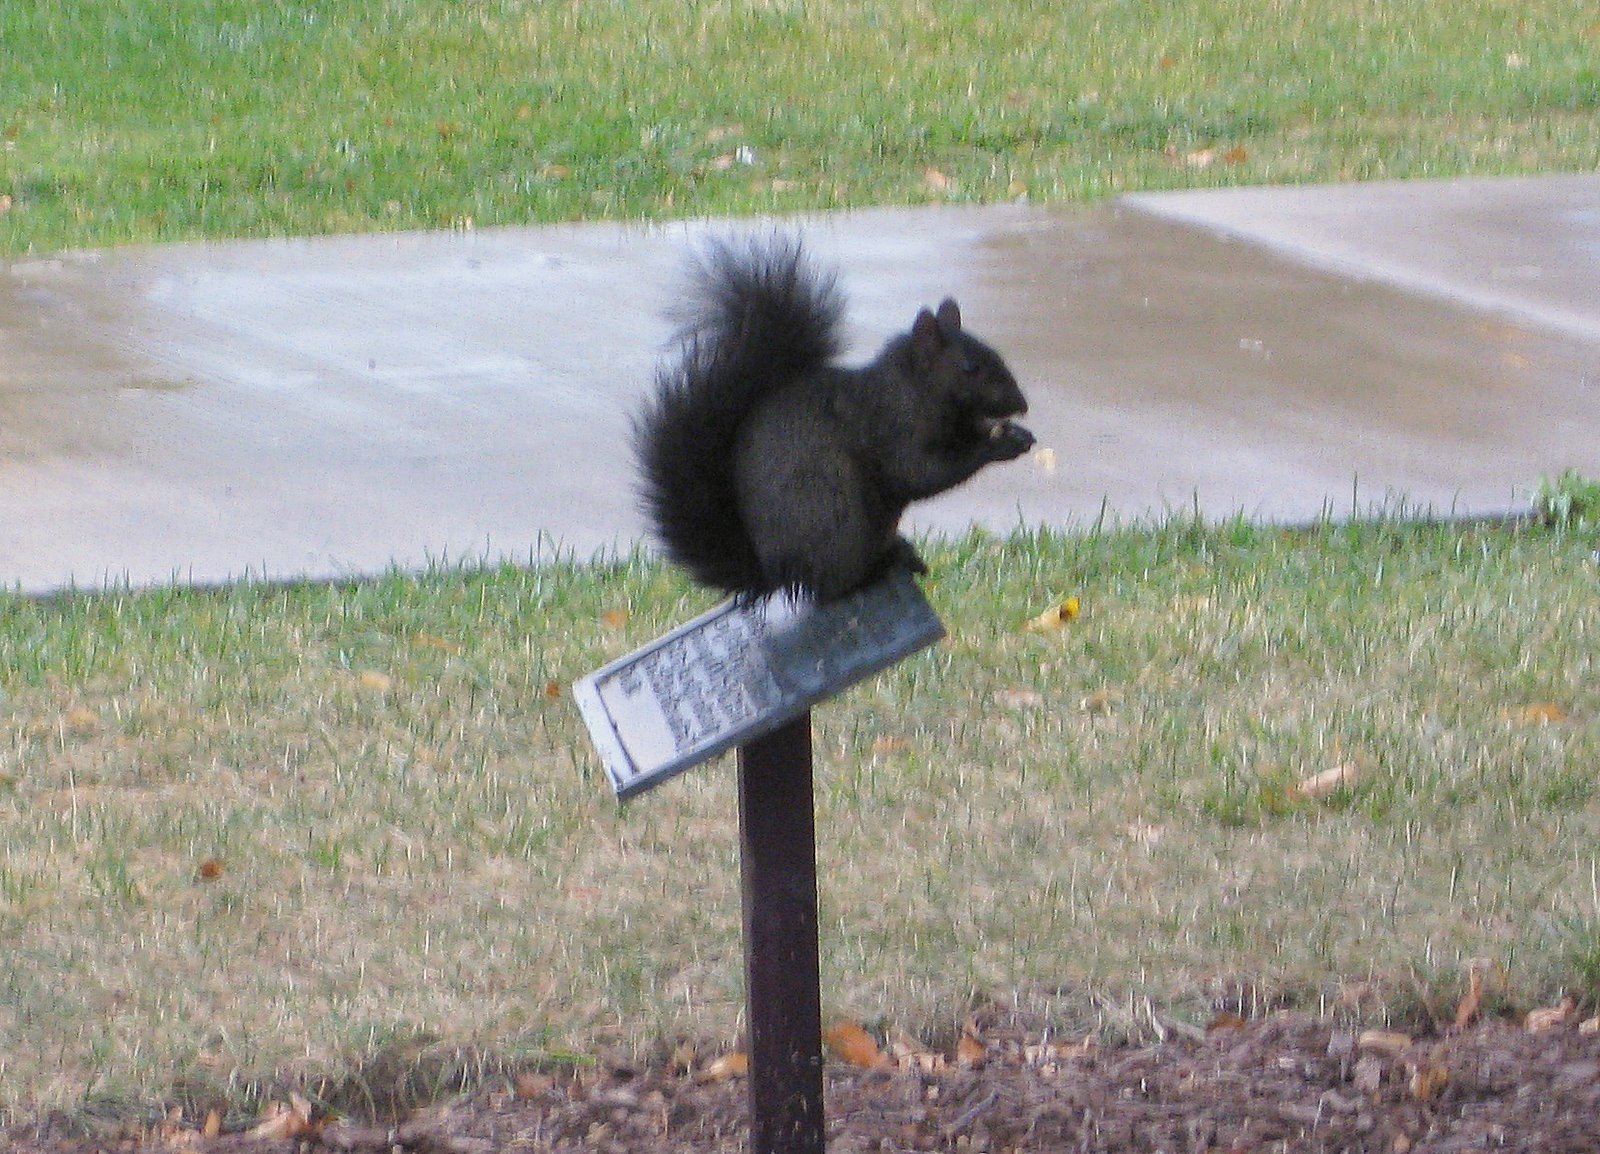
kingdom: Animalia
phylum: Chordata
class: Mammalia
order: Rodentia
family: Sciuridae
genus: Sciurus
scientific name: Sciurus carolinensis
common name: Eastern gray squirrel
